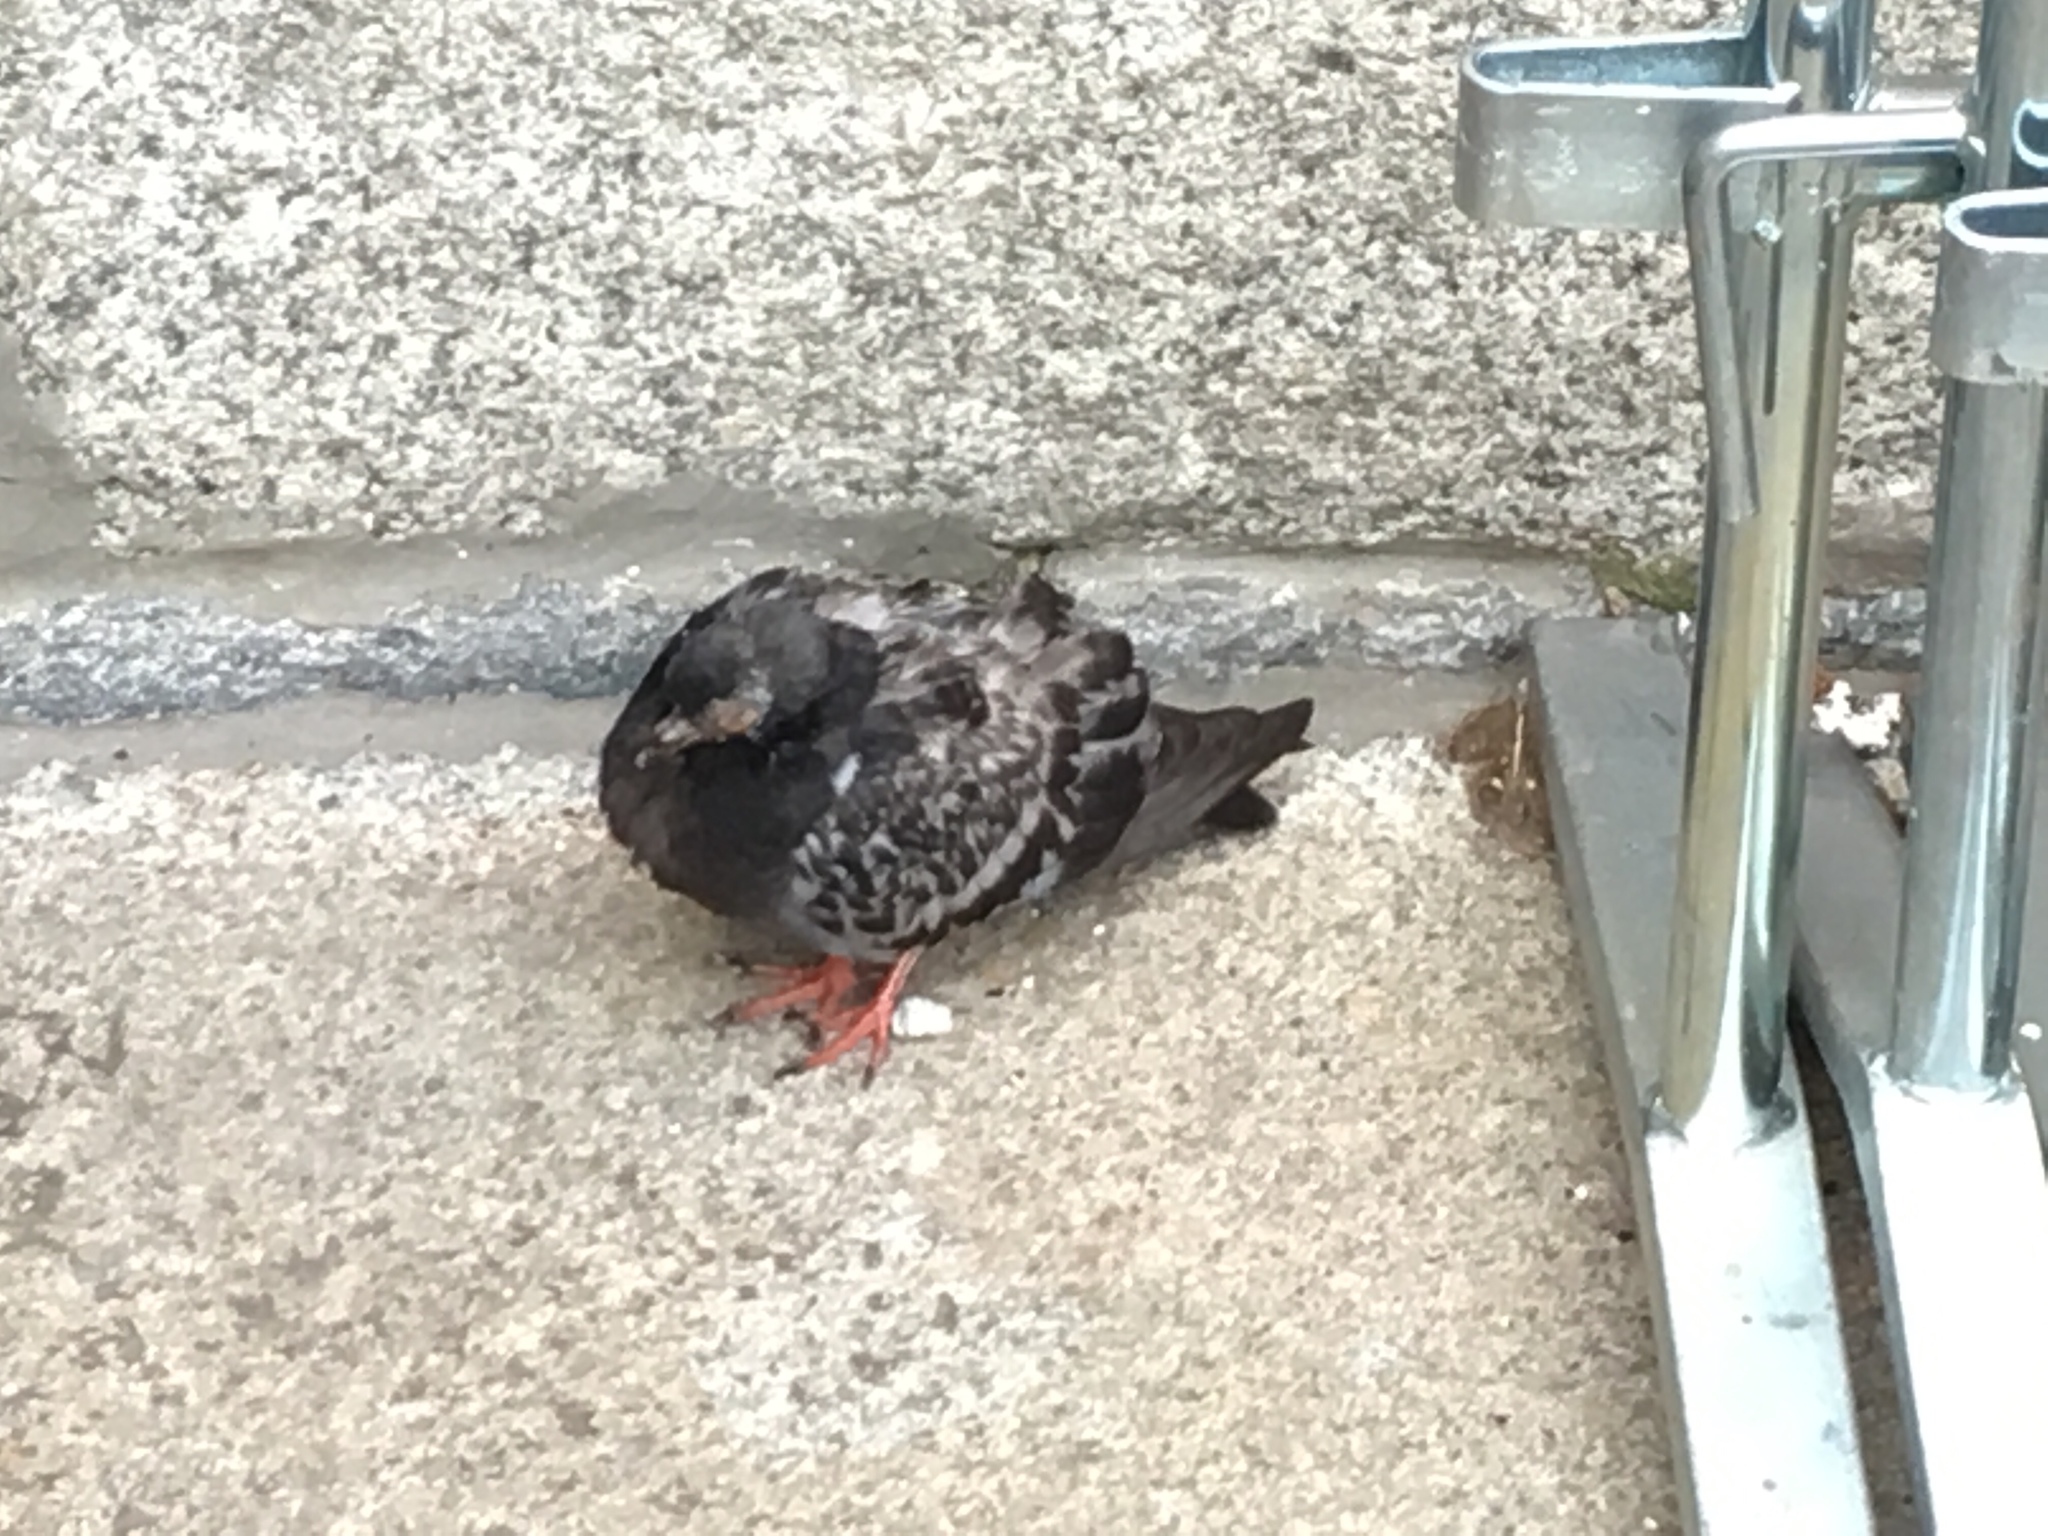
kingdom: Animalia
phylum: Chordata
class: Aves
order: Columbiformes
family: Columbidae
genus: Columba
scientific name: Columba livia
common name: Rock pigeon
